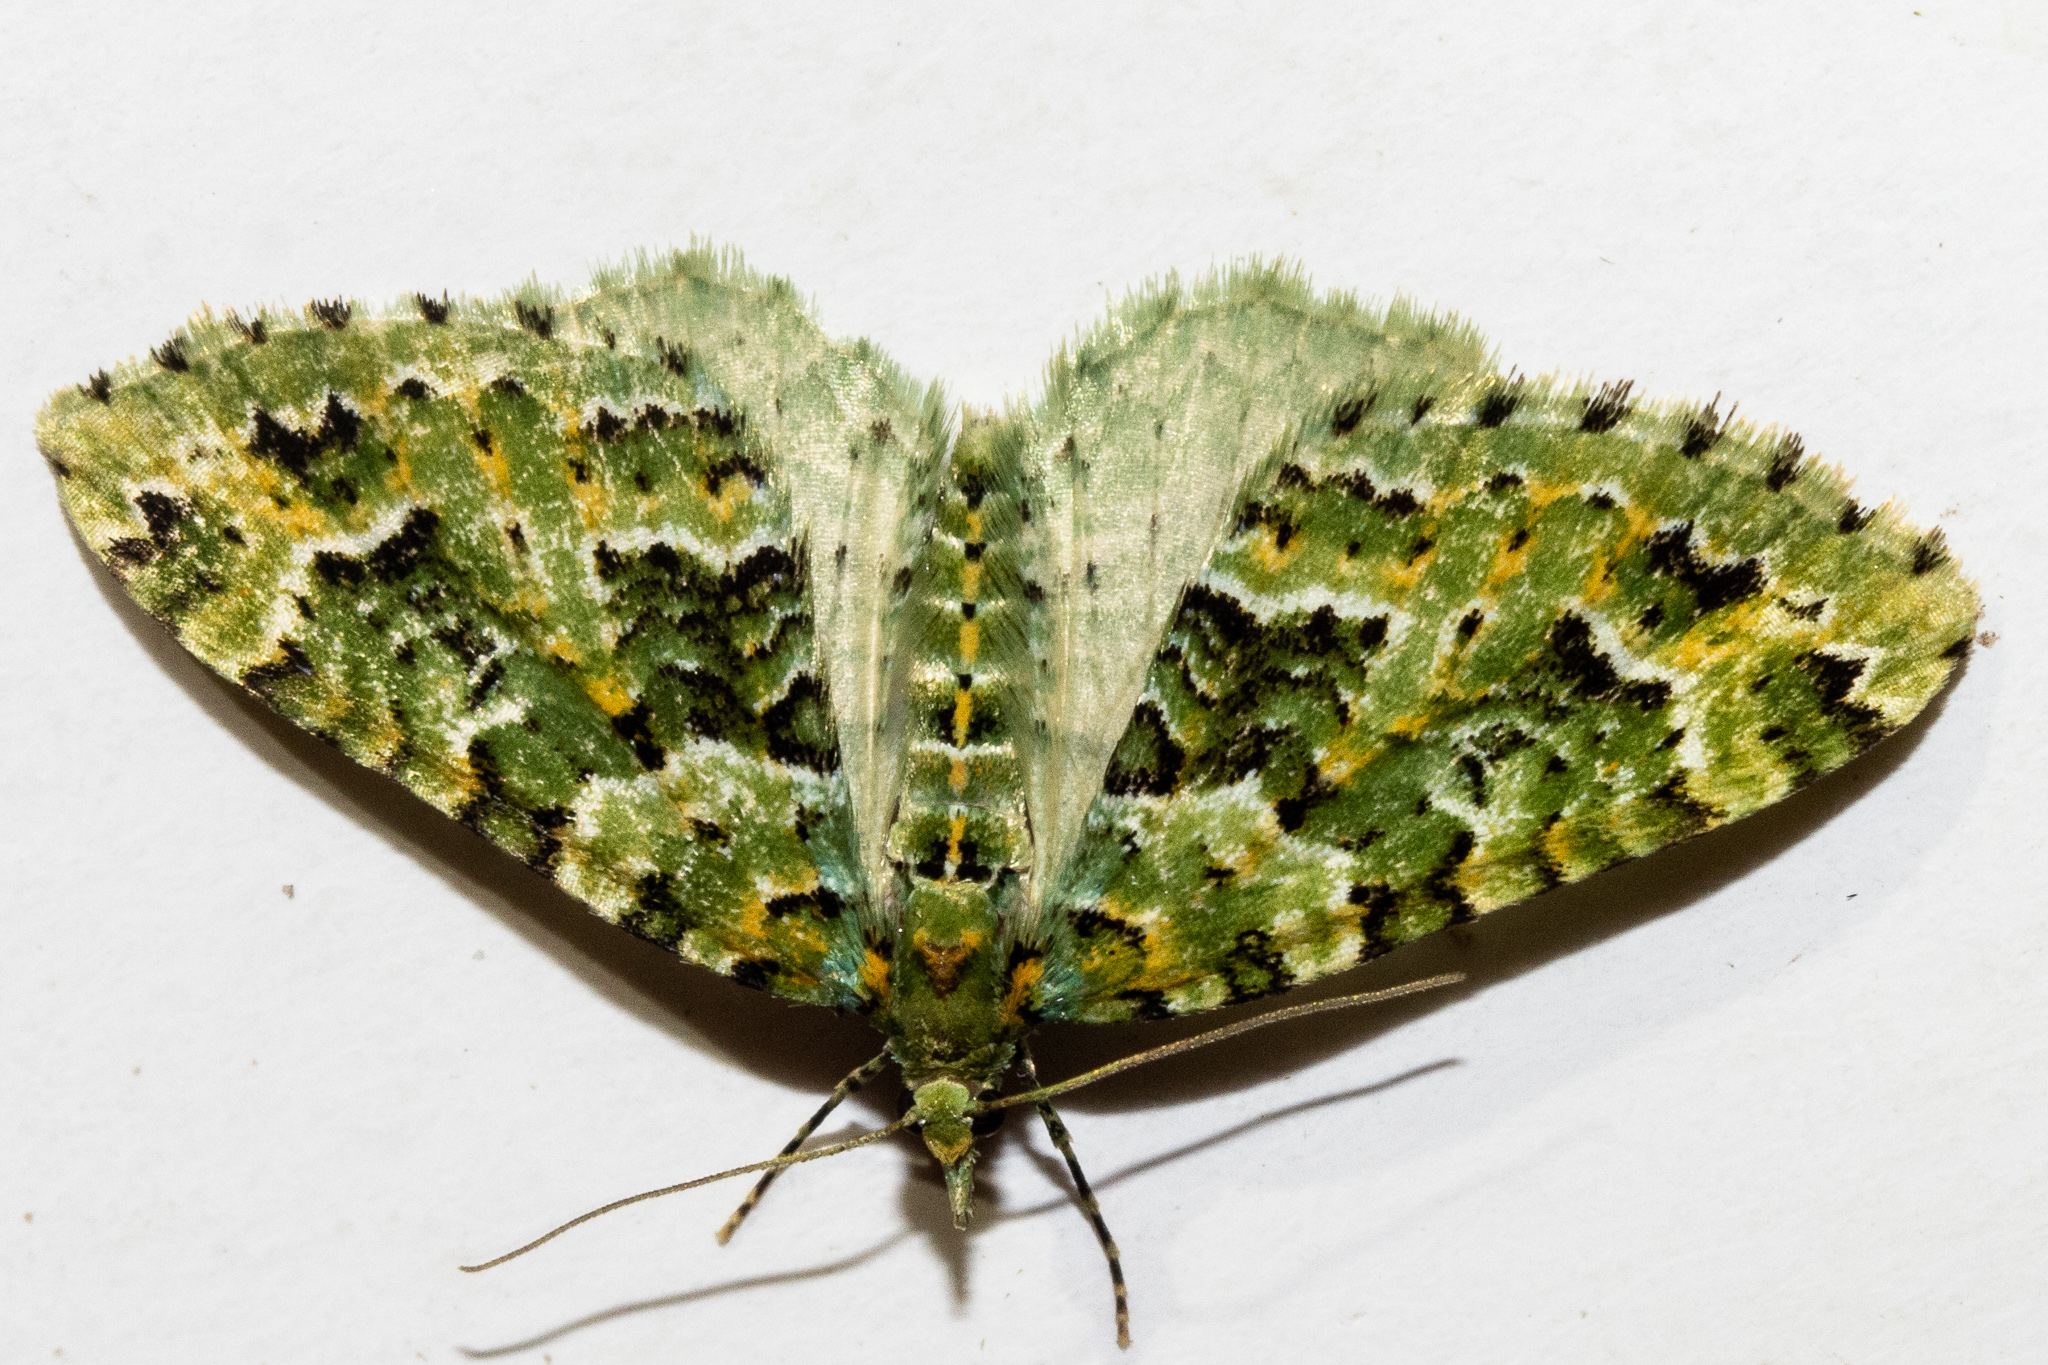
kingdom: Animalia
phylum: Arthropoda
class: Insecta
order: Lepidoptera
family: Geometridae
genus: Pasiphila
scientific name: Pasiphila melochlora
